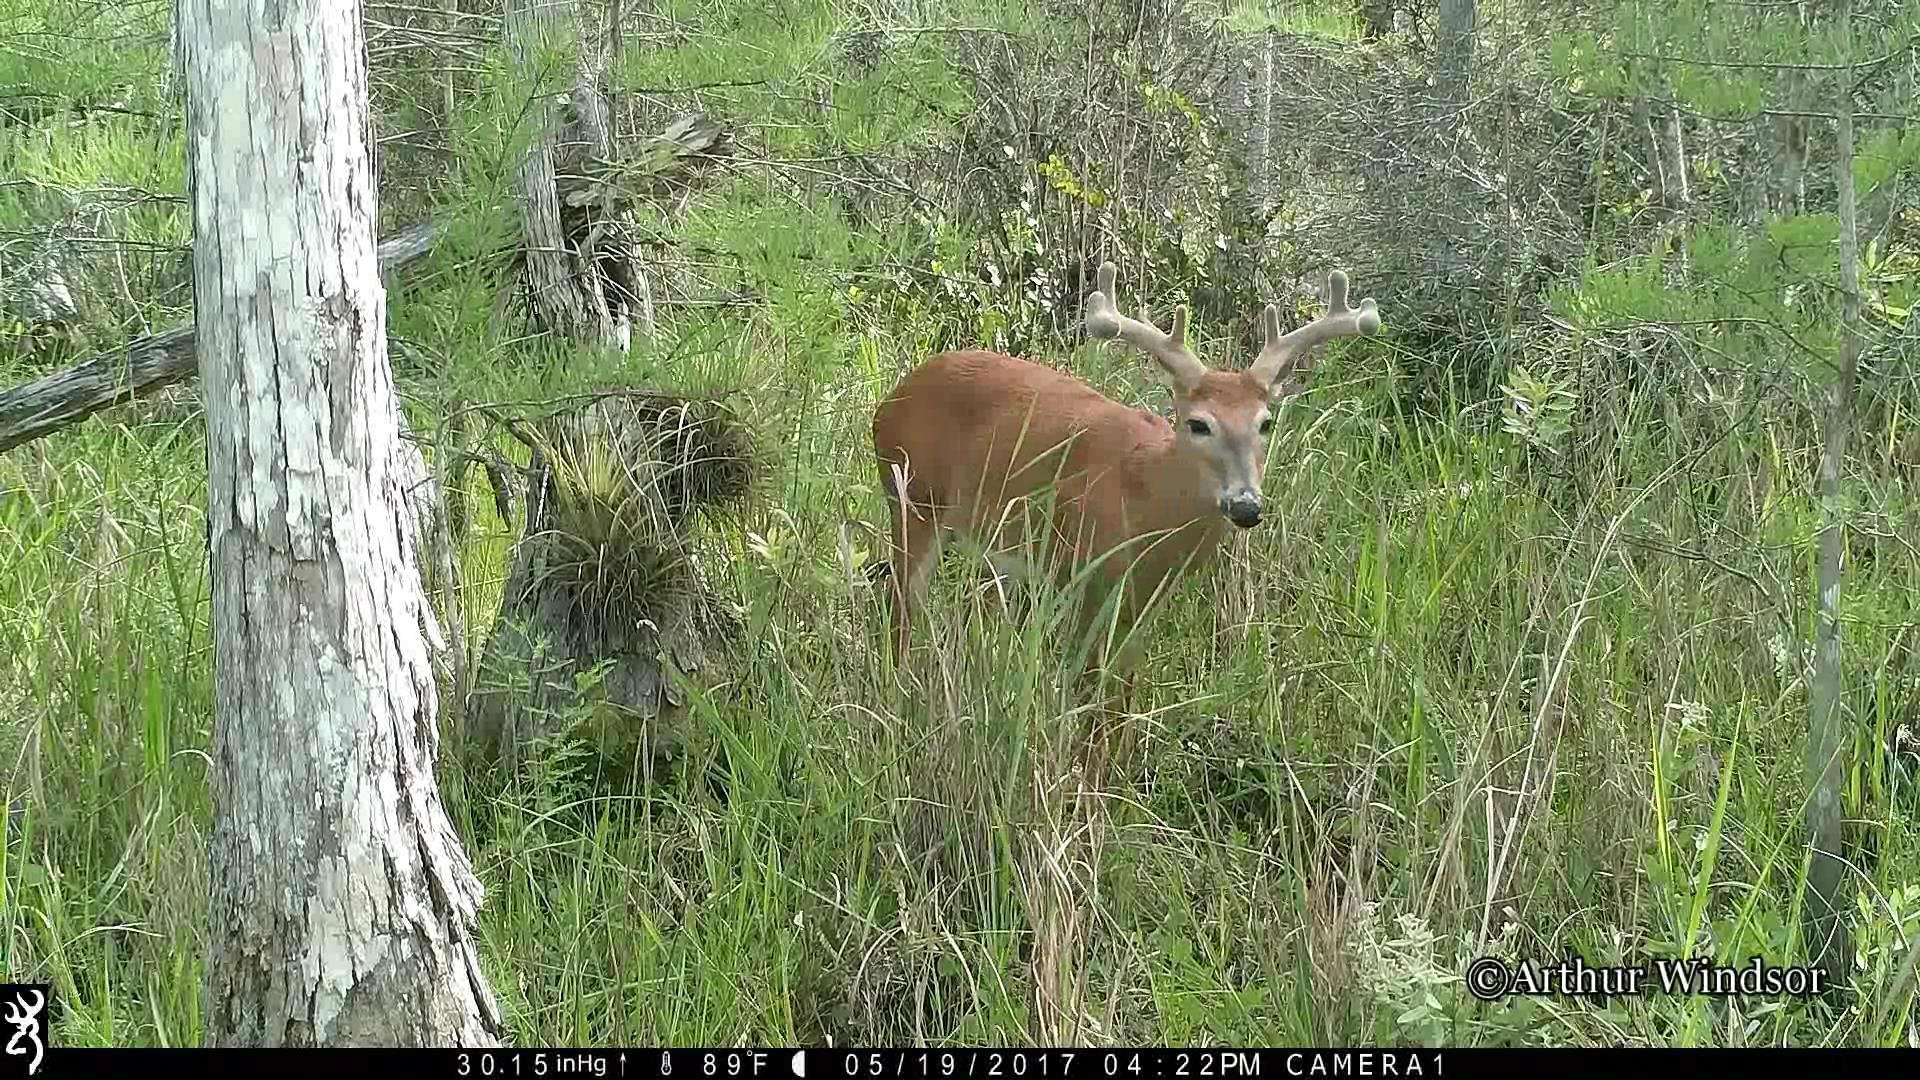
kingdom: Animalia
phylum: Chordata
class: Mammalia
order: Artiodactyla
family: Cervidae
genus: Odocoileus
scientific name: Odocoileus virginianus
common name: White-tailed deer
